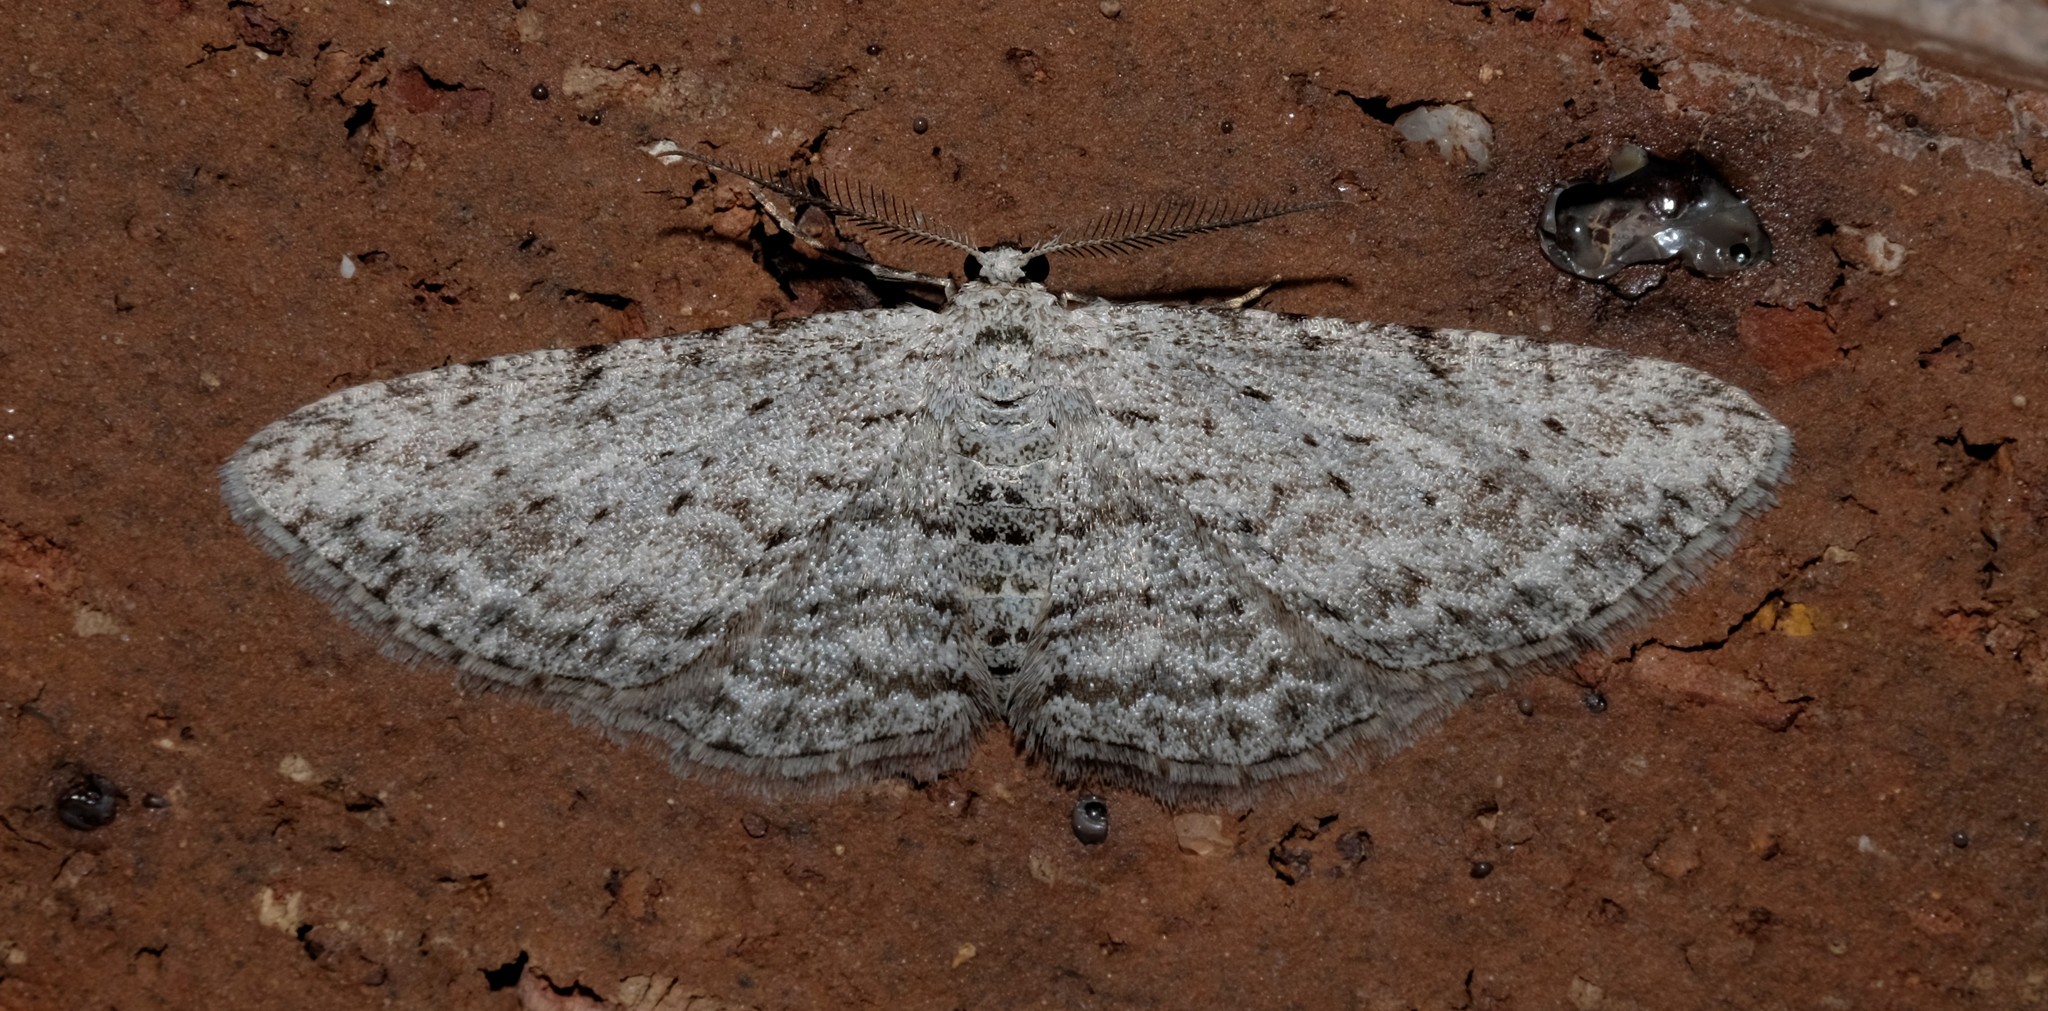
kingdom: Animalia
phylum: Arthropoda
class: Insecta
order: Lepidoptera
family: Geometridae
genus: Phelotis
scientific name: Phelotis cognata
